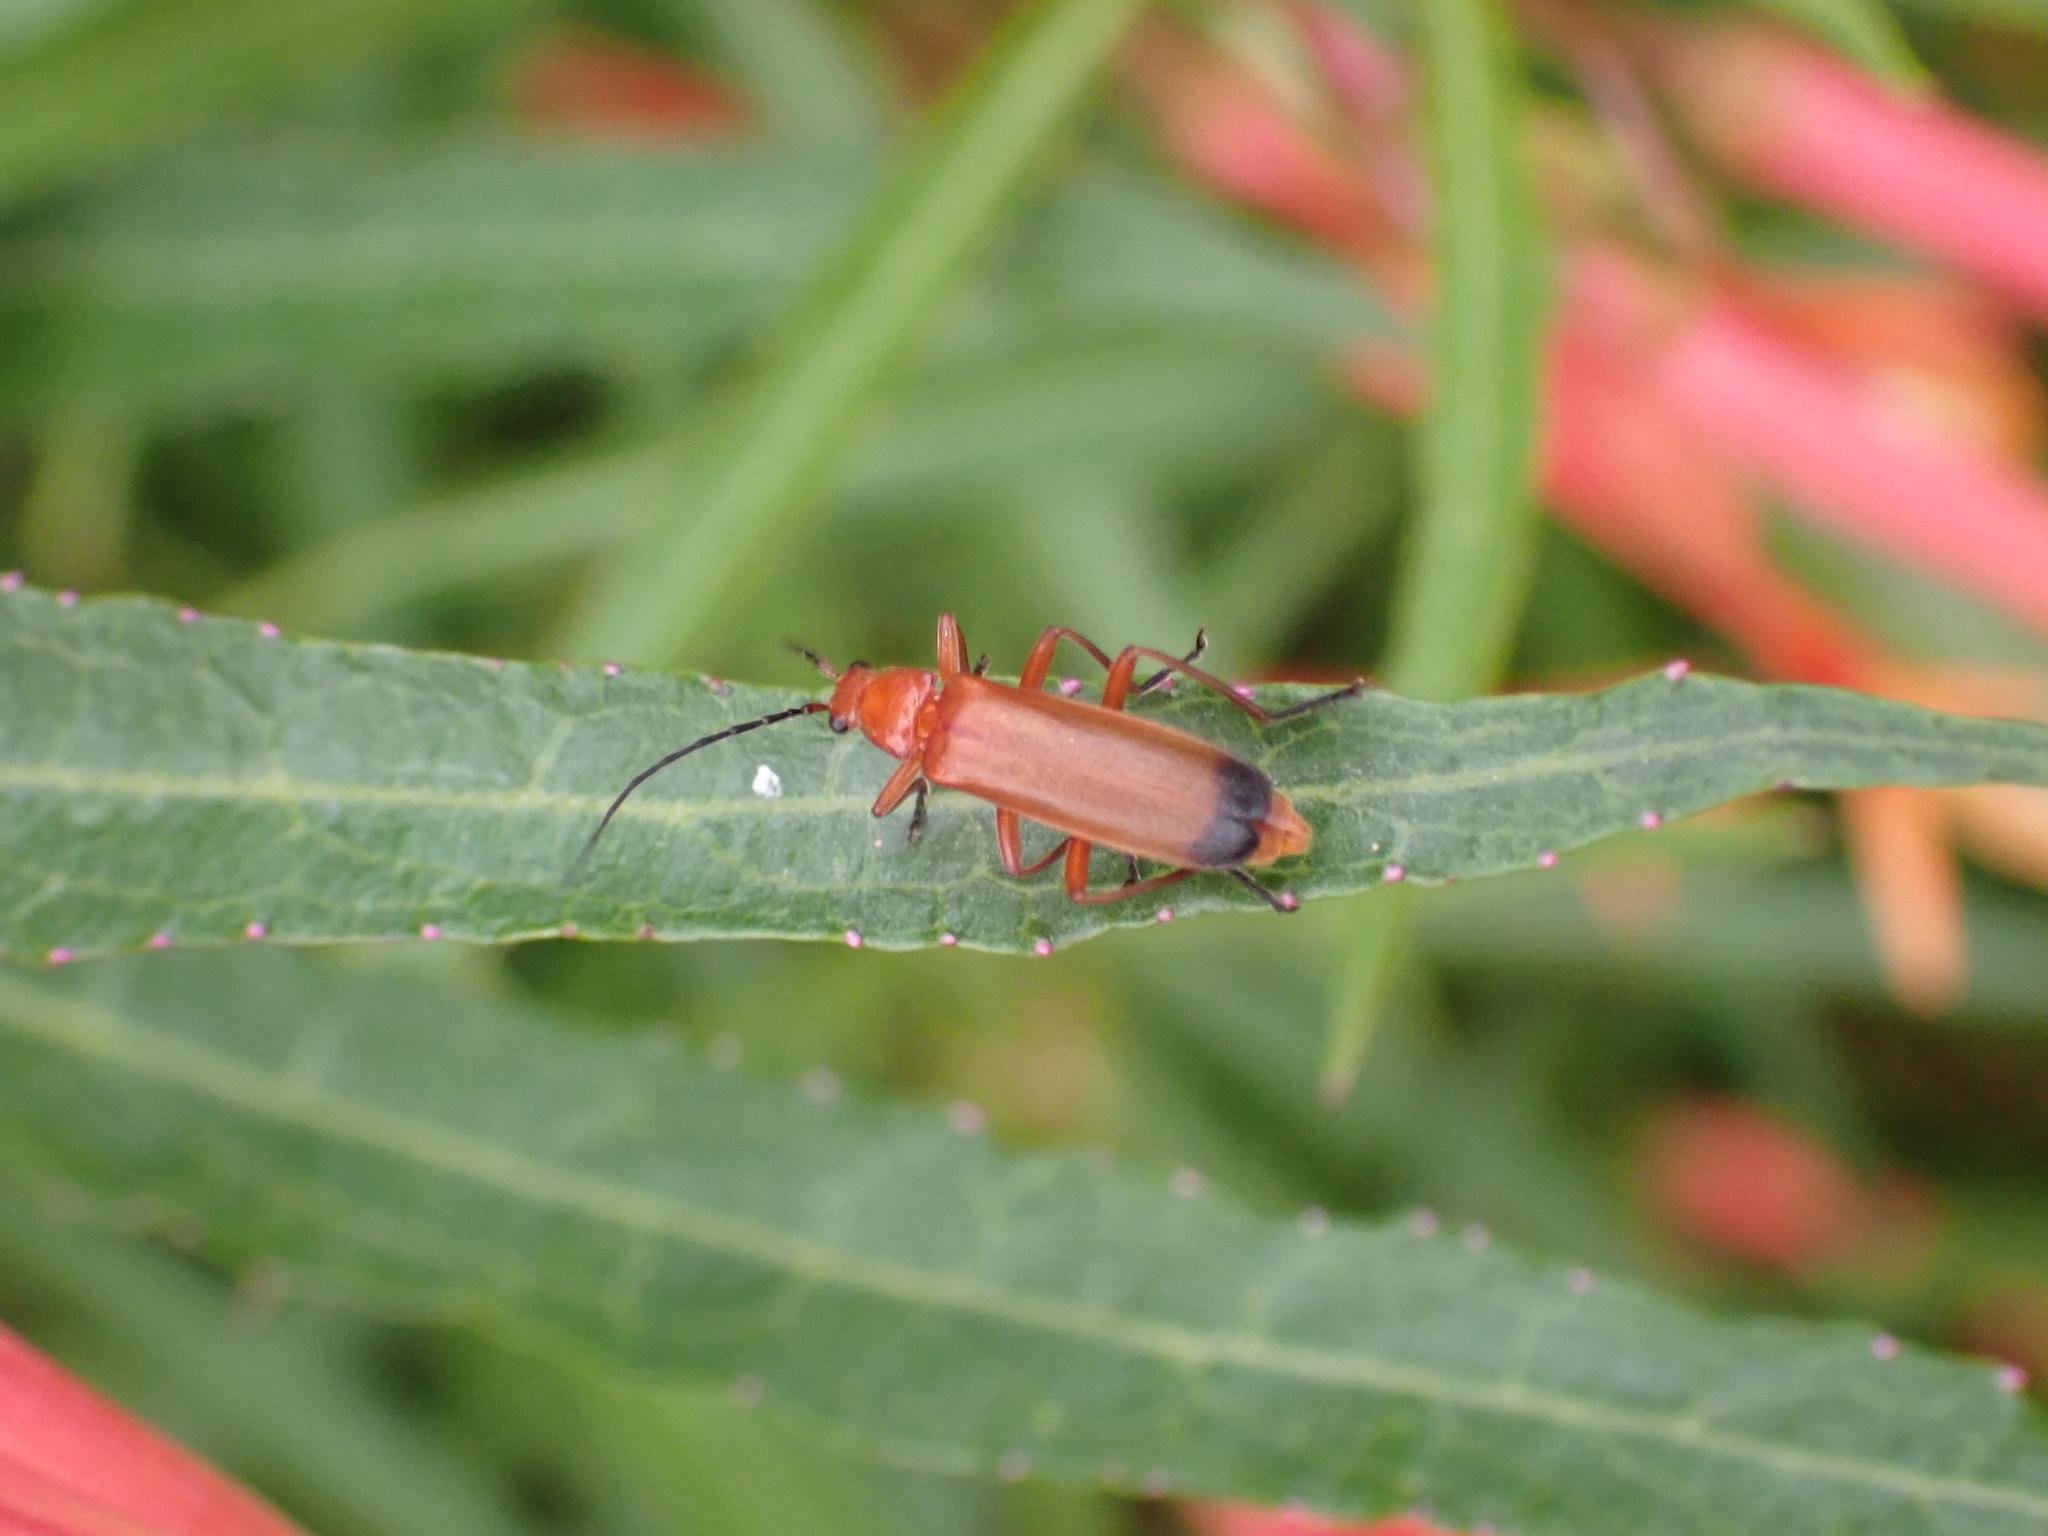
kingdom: Animalia
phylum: Arthropoda
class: Insecta
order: Coleoptera
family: Cantharidae
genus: Rhagonycha
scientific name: Rhagonycha fulva
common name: Common red soldier beetle
